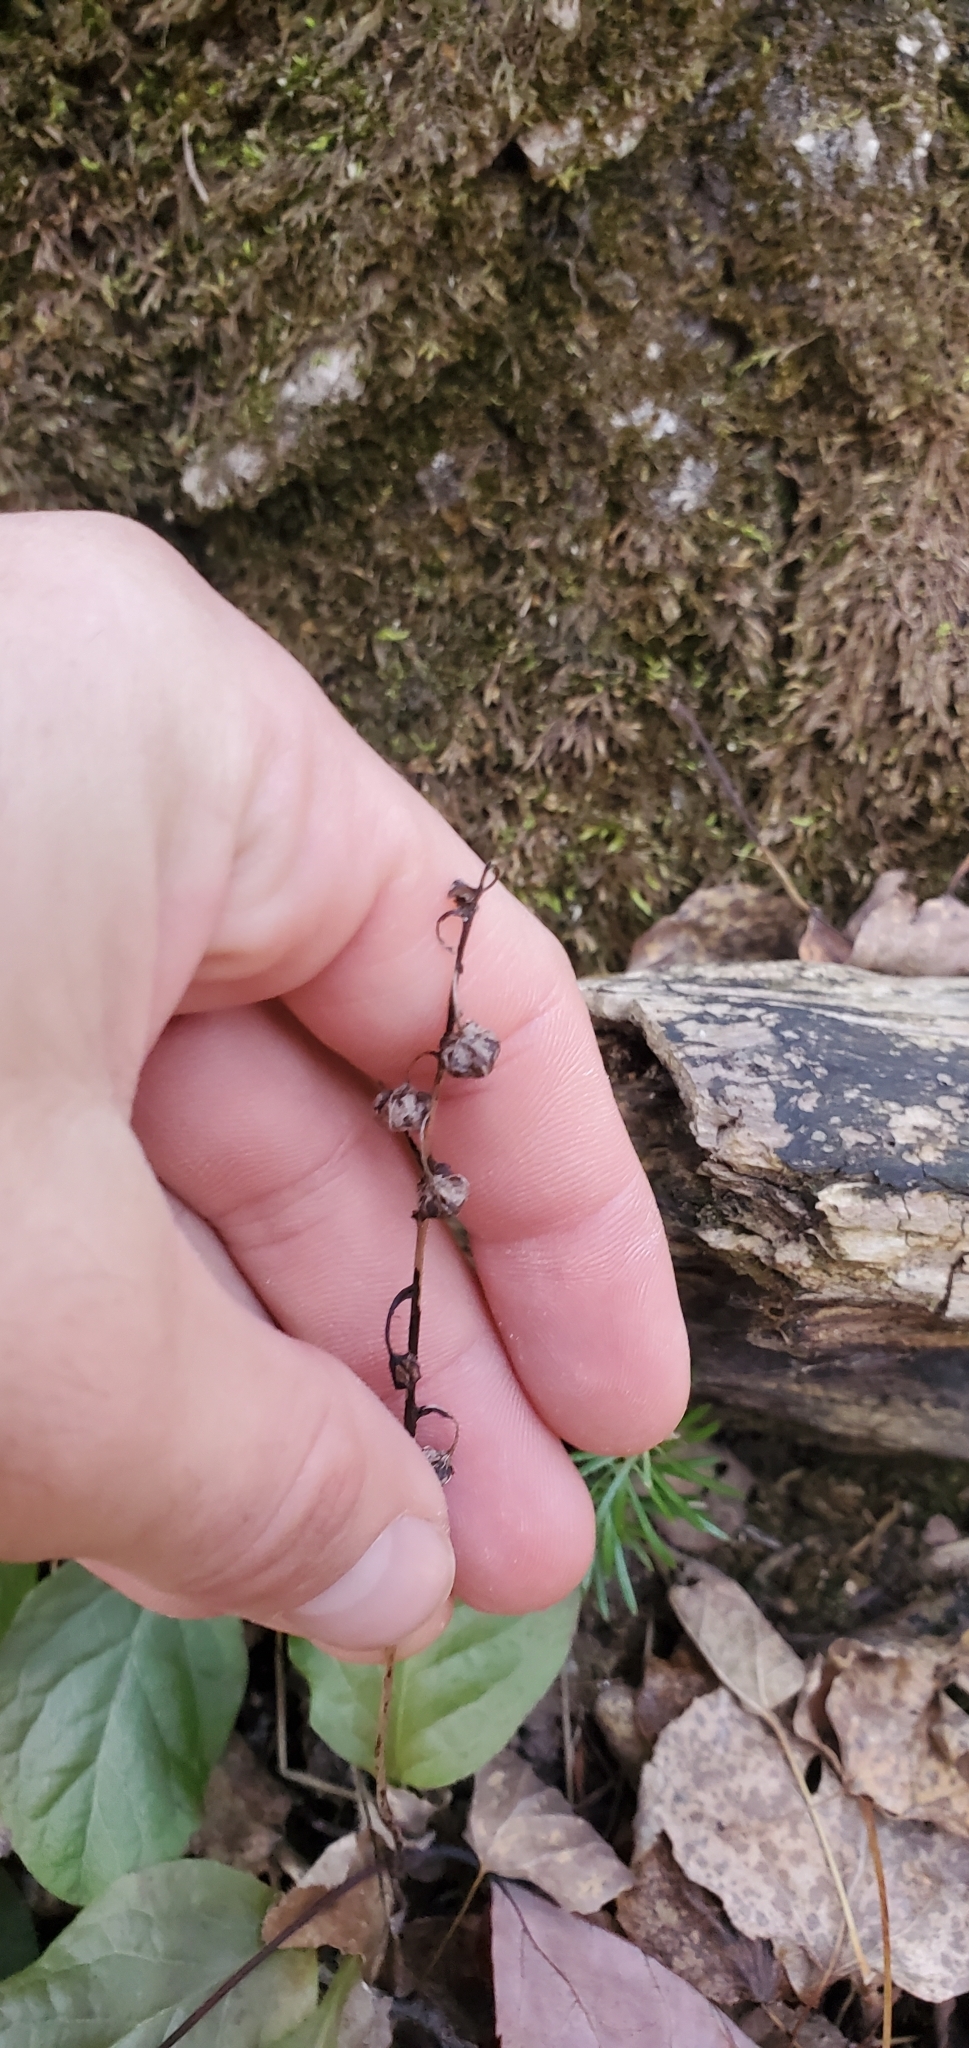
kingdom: Plantae
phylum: Tracheophyta
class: Magnoliopsida
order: Ericales
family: Ericaceae
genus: Pyrola
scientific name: Pyrola elliptica
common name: Shinleaf
